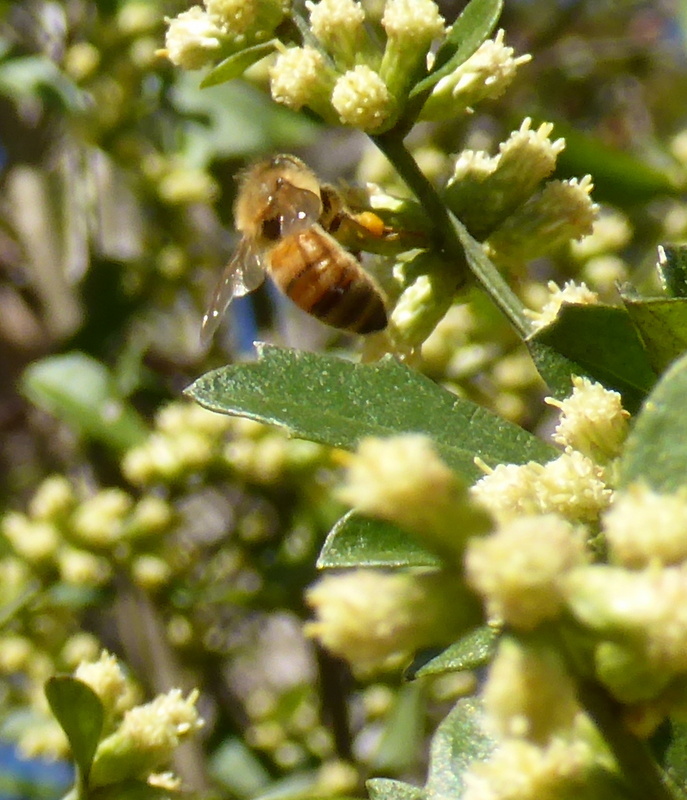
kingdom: Animalia
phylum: Arthropoda
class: Insecta
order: Hymenoptera
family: Apidae
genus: Apis
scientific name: Apis mellifera
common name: Honey bee
